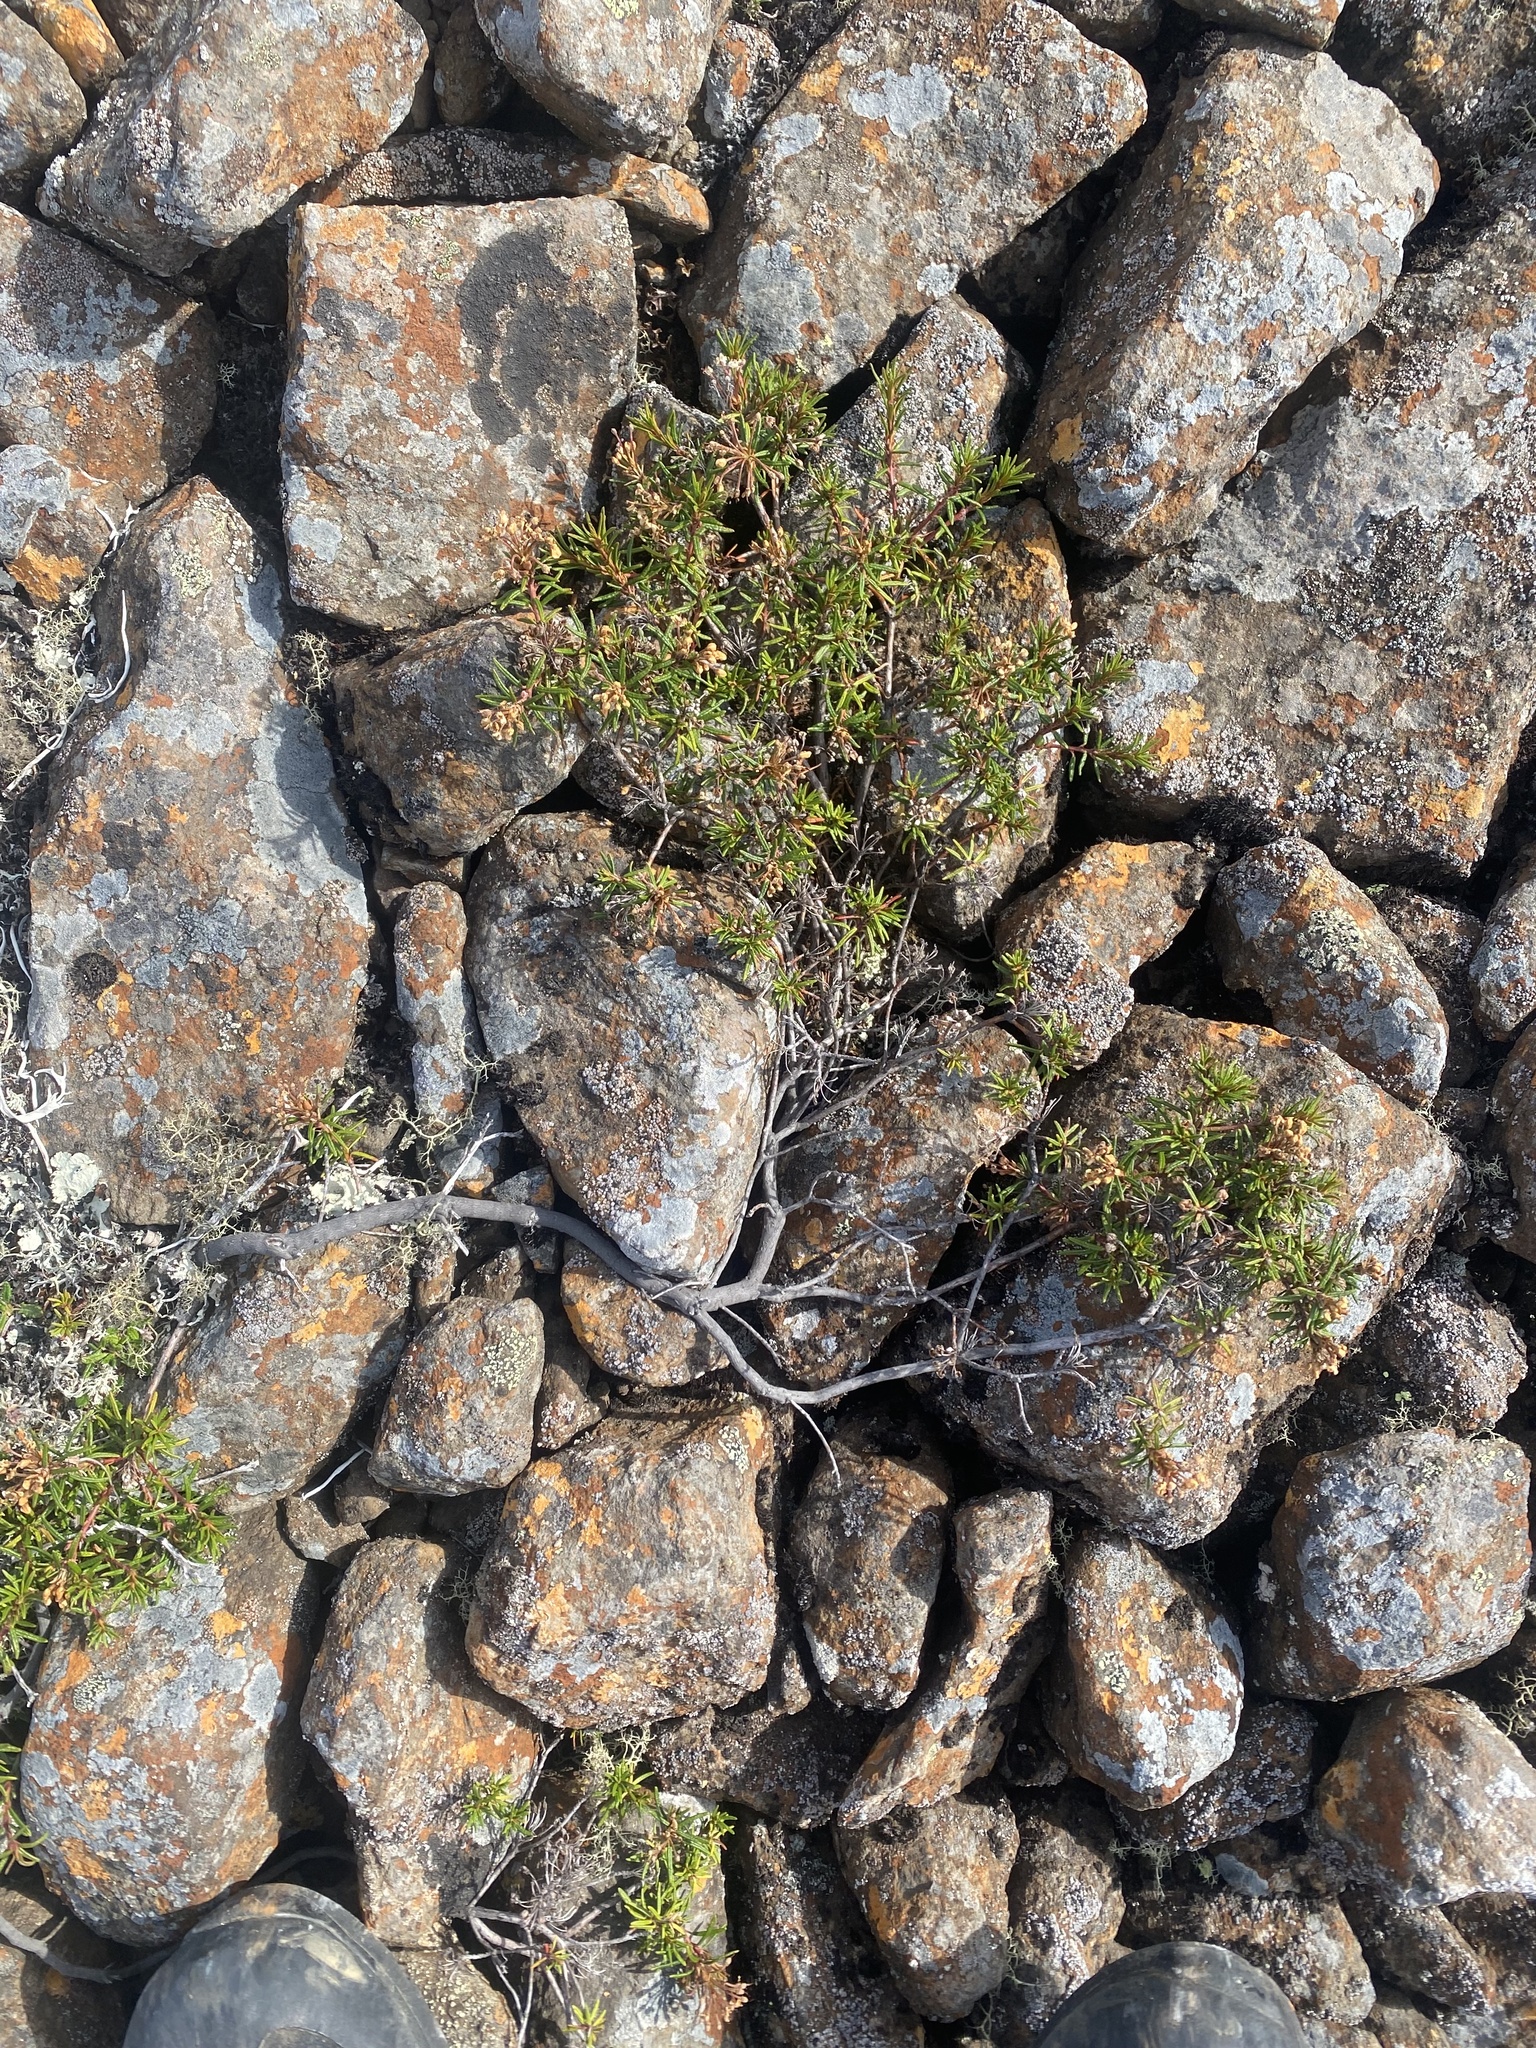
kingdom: Plantae
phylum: Tracheophyta
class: Magnoliopsida
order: Ericales
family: Ericaceae
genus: Rhododendron
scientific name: Rhododendron tomentosum
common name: Marsh labrador tea
